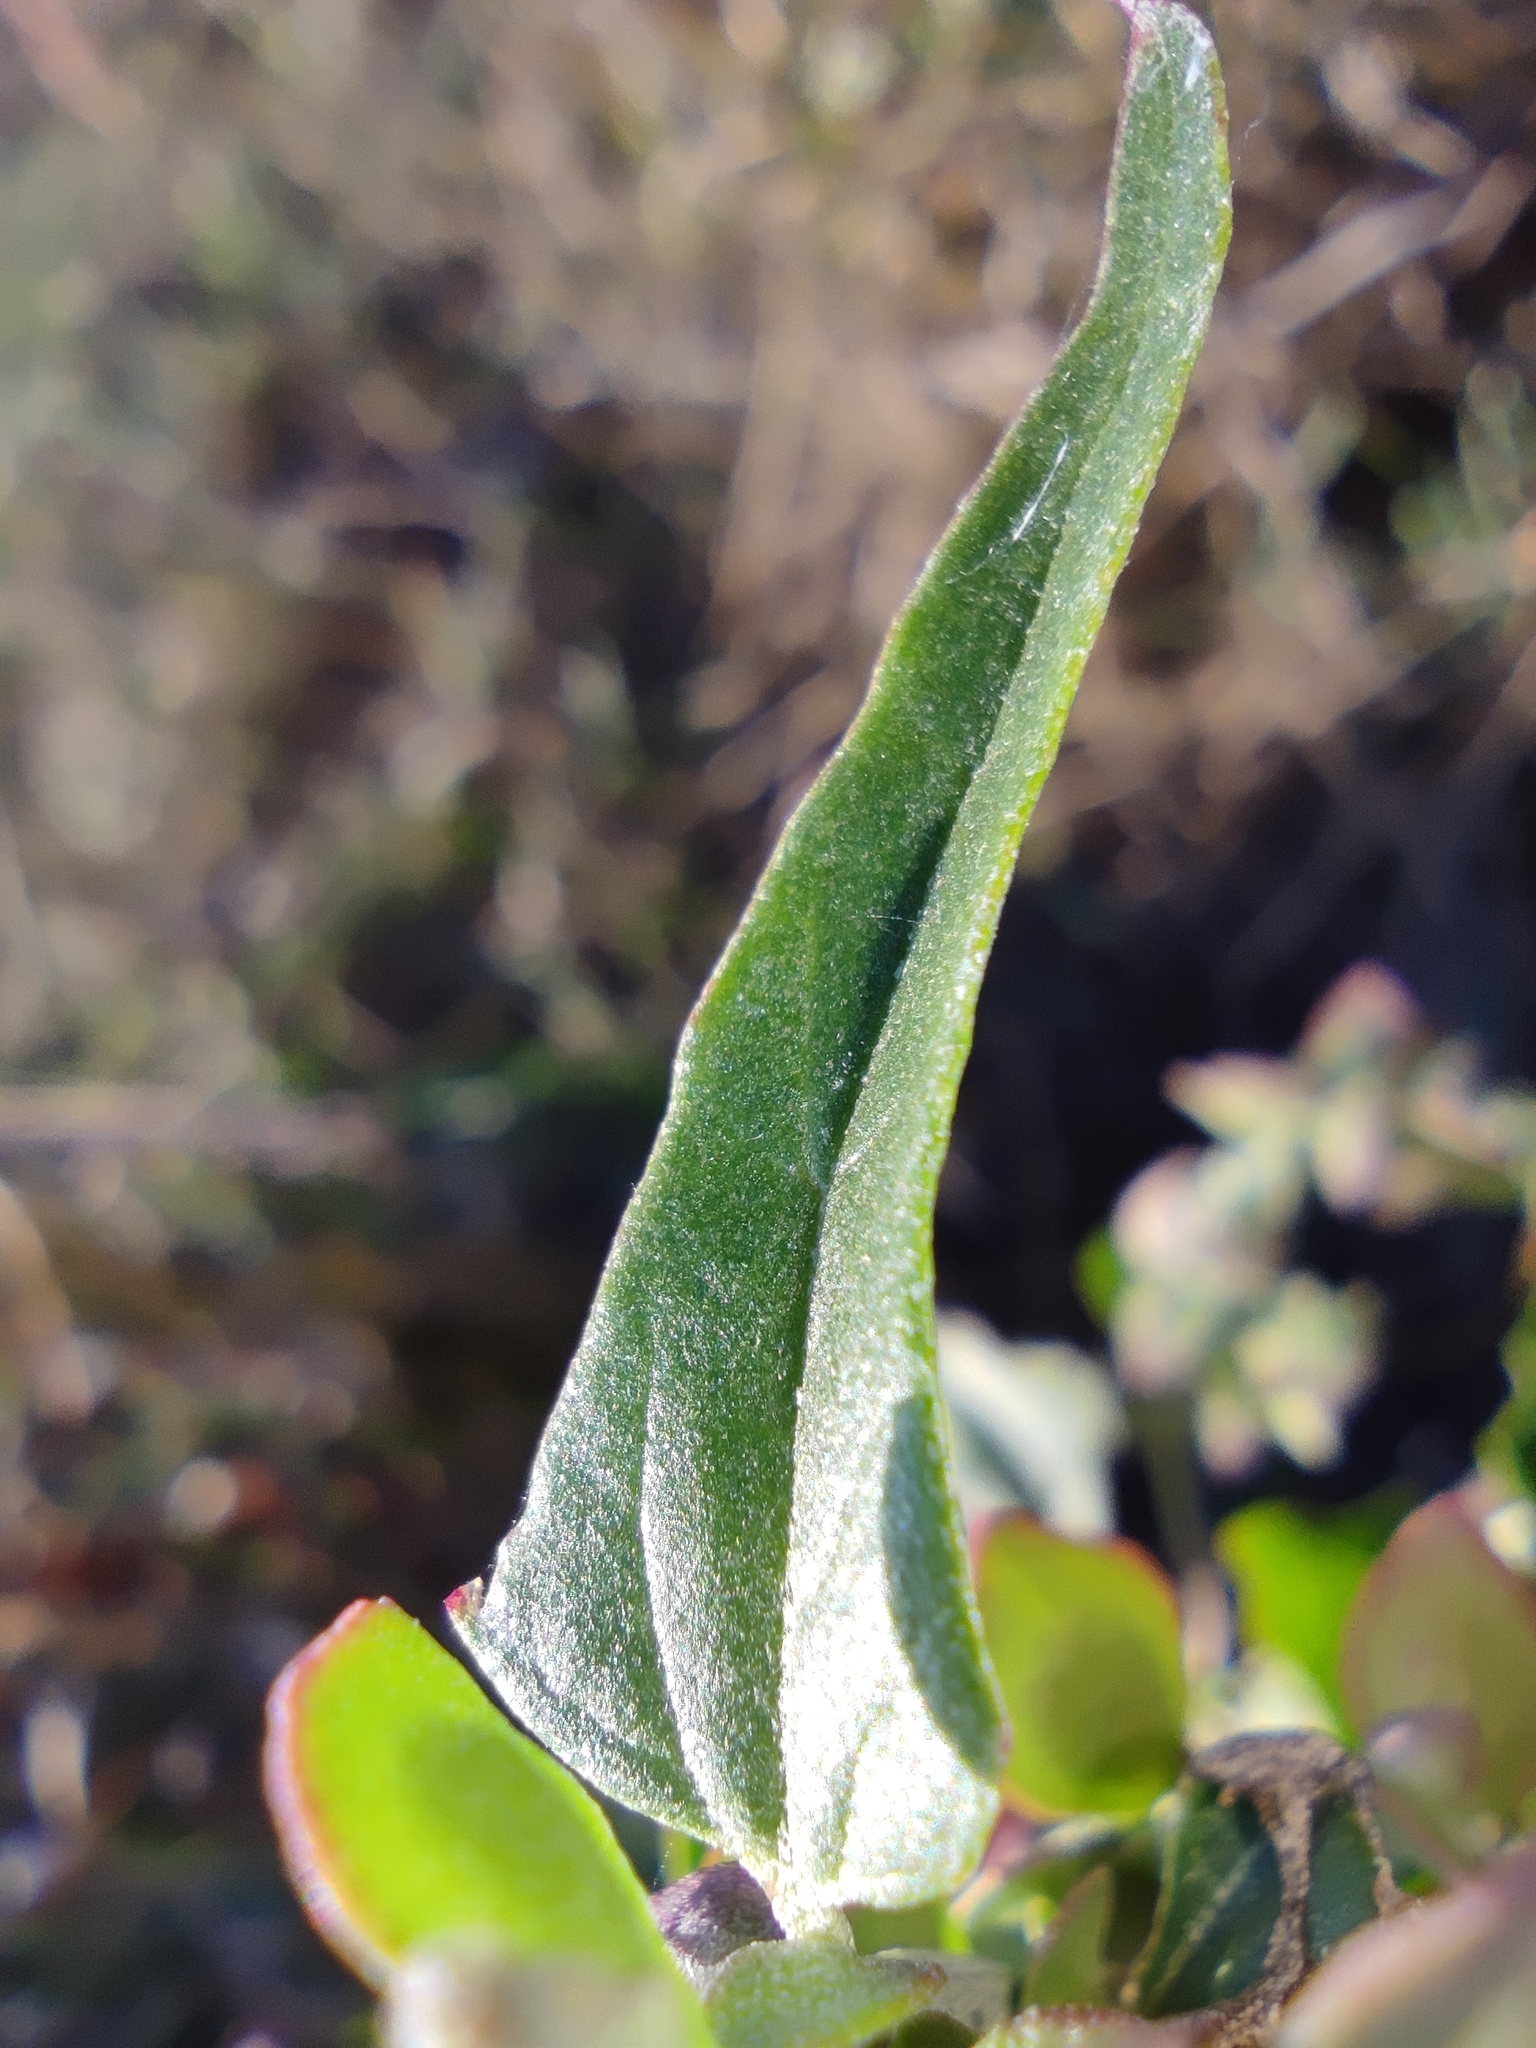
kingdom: Plantae
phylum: Tracheophyta
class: Magnoliopsida
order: Caryophyllales
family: Amaranthaceae
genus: Atriplex
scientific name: Atriplex sagittata
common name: Purple orache
